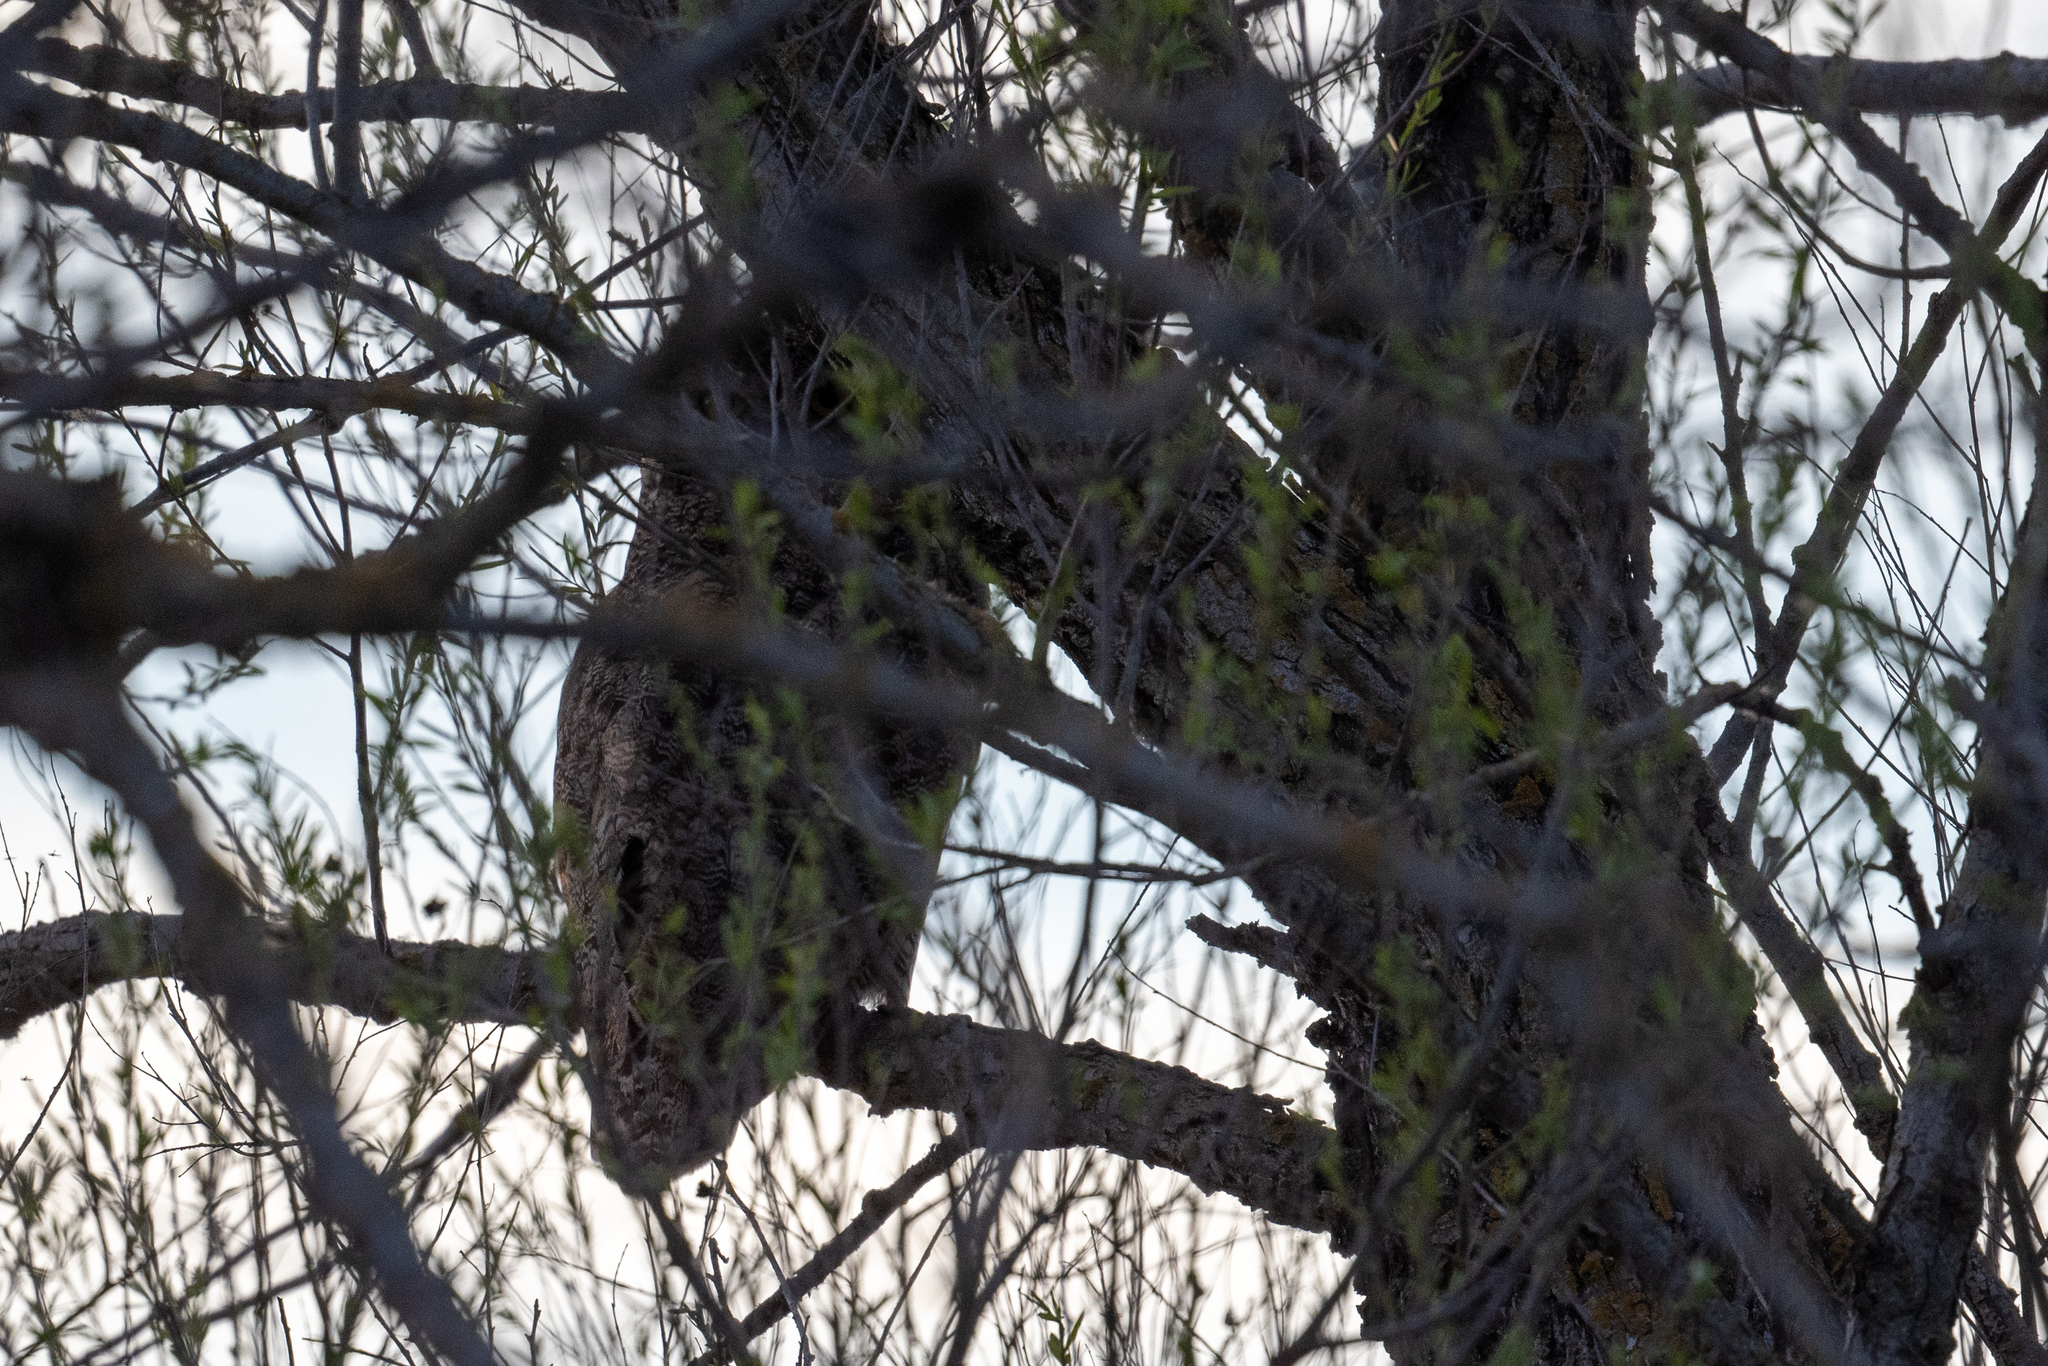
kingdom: Animalia
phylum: Chordata
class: Aves
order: Strigiformes
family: Strigidae
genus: Bubo
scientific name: Bubo virginianus
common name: Great horned owl
